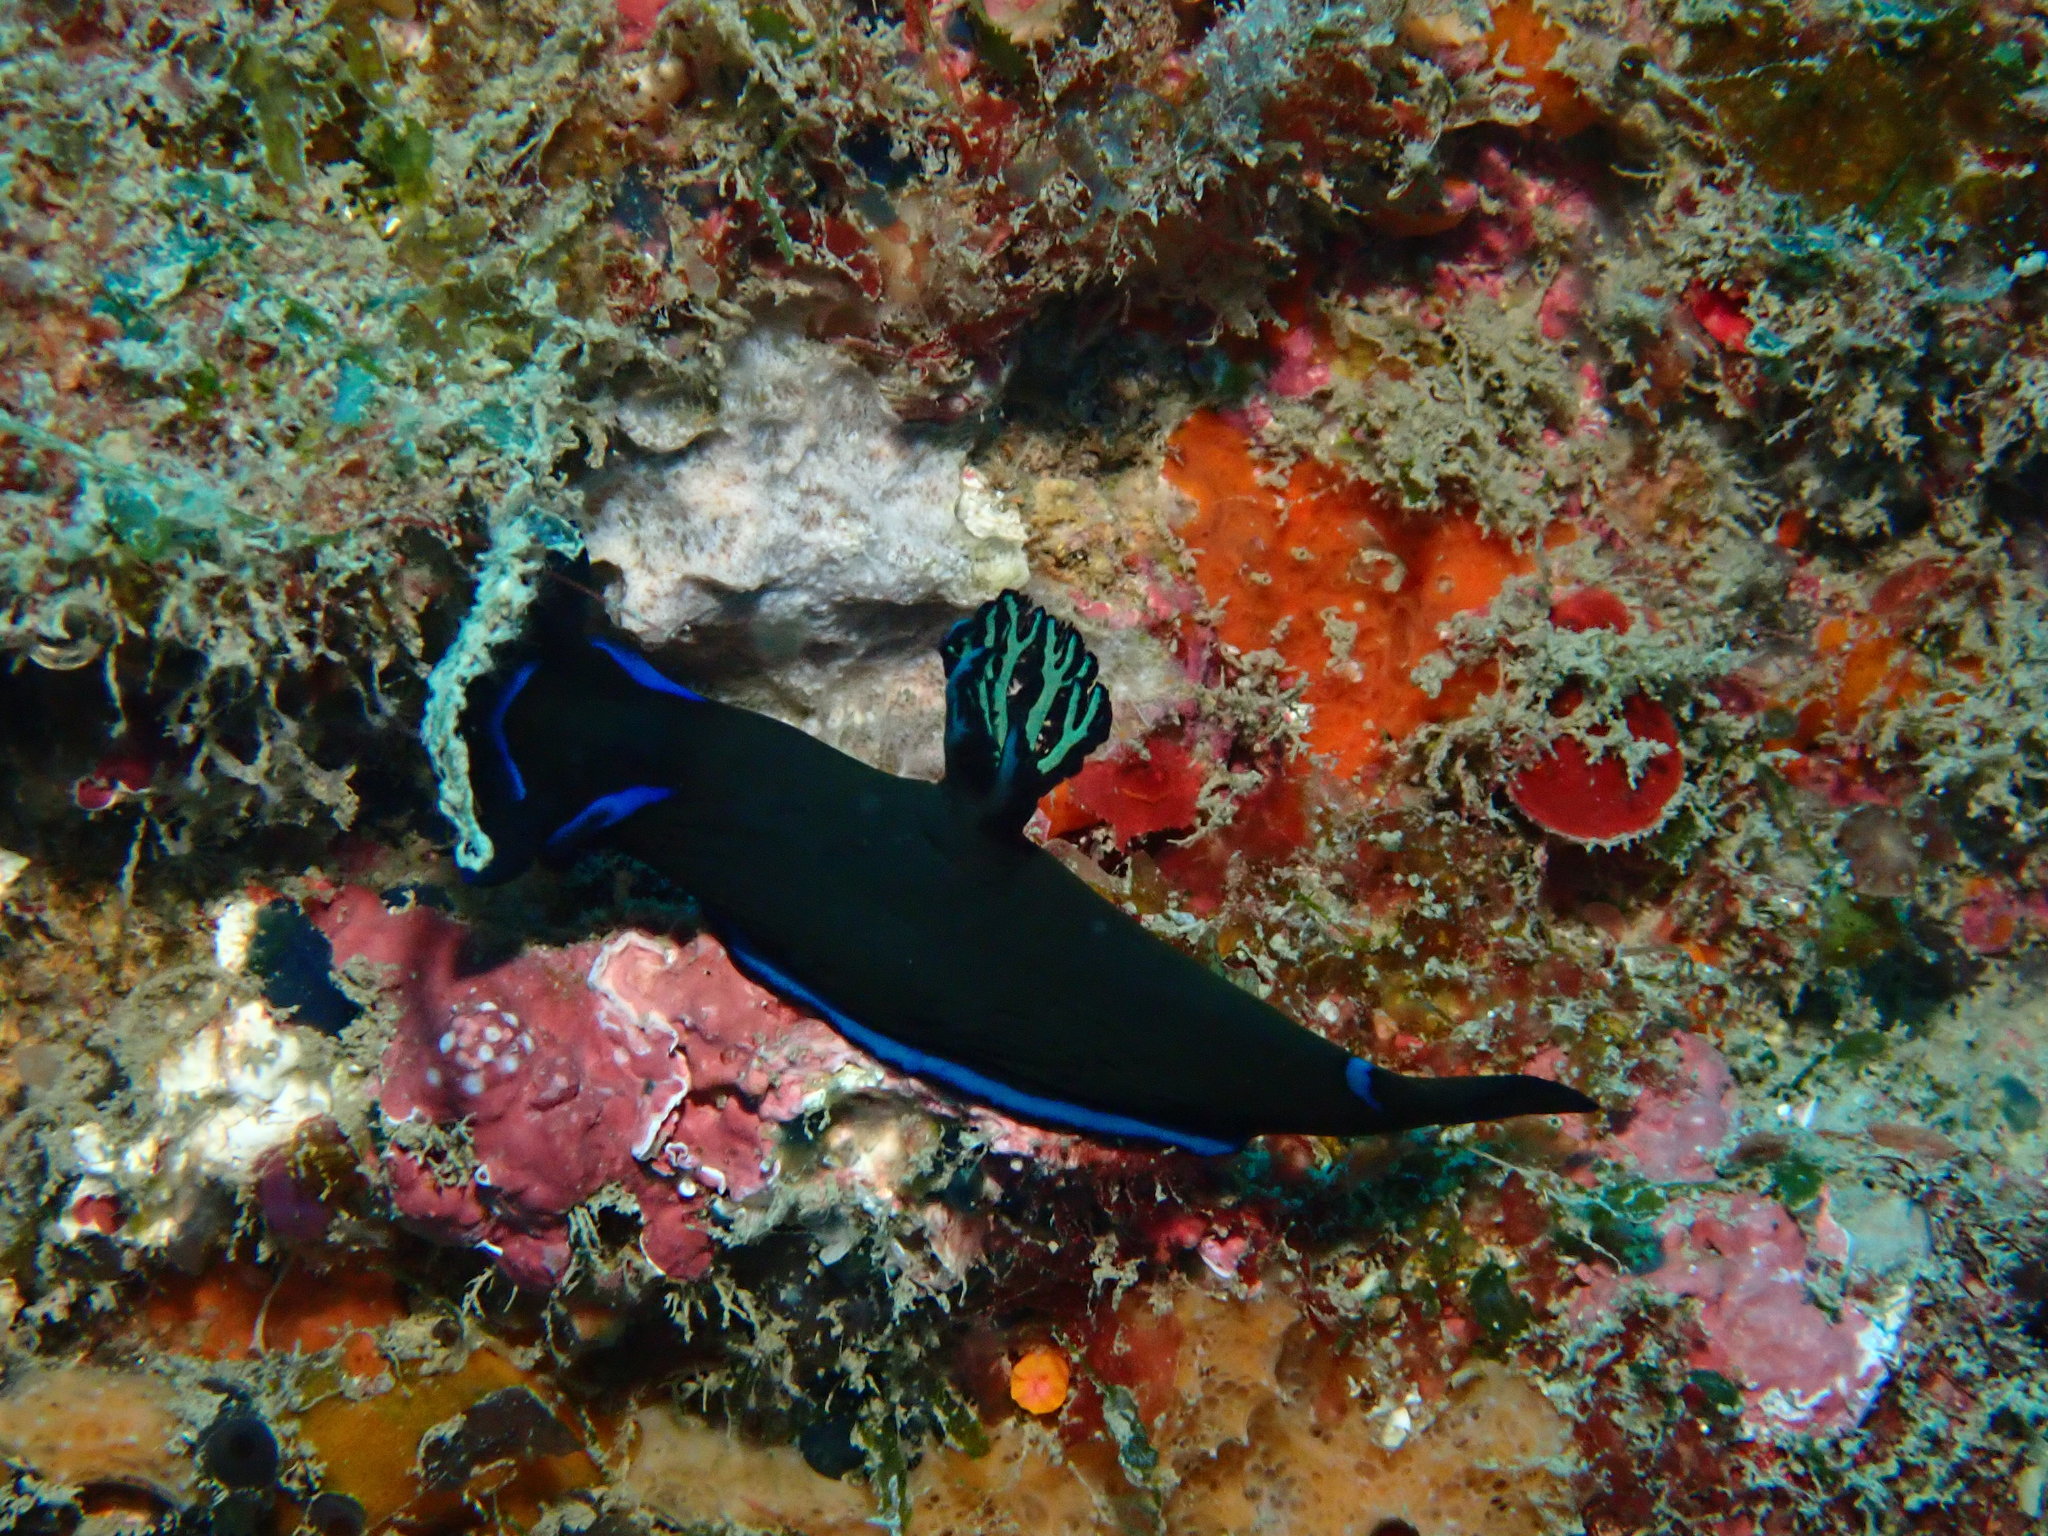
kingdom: Animalia
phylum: Mollusca
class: Gastropoda
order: Nudibranchia
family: Polyceridae
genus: Tambja
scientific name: Tambja morosa
